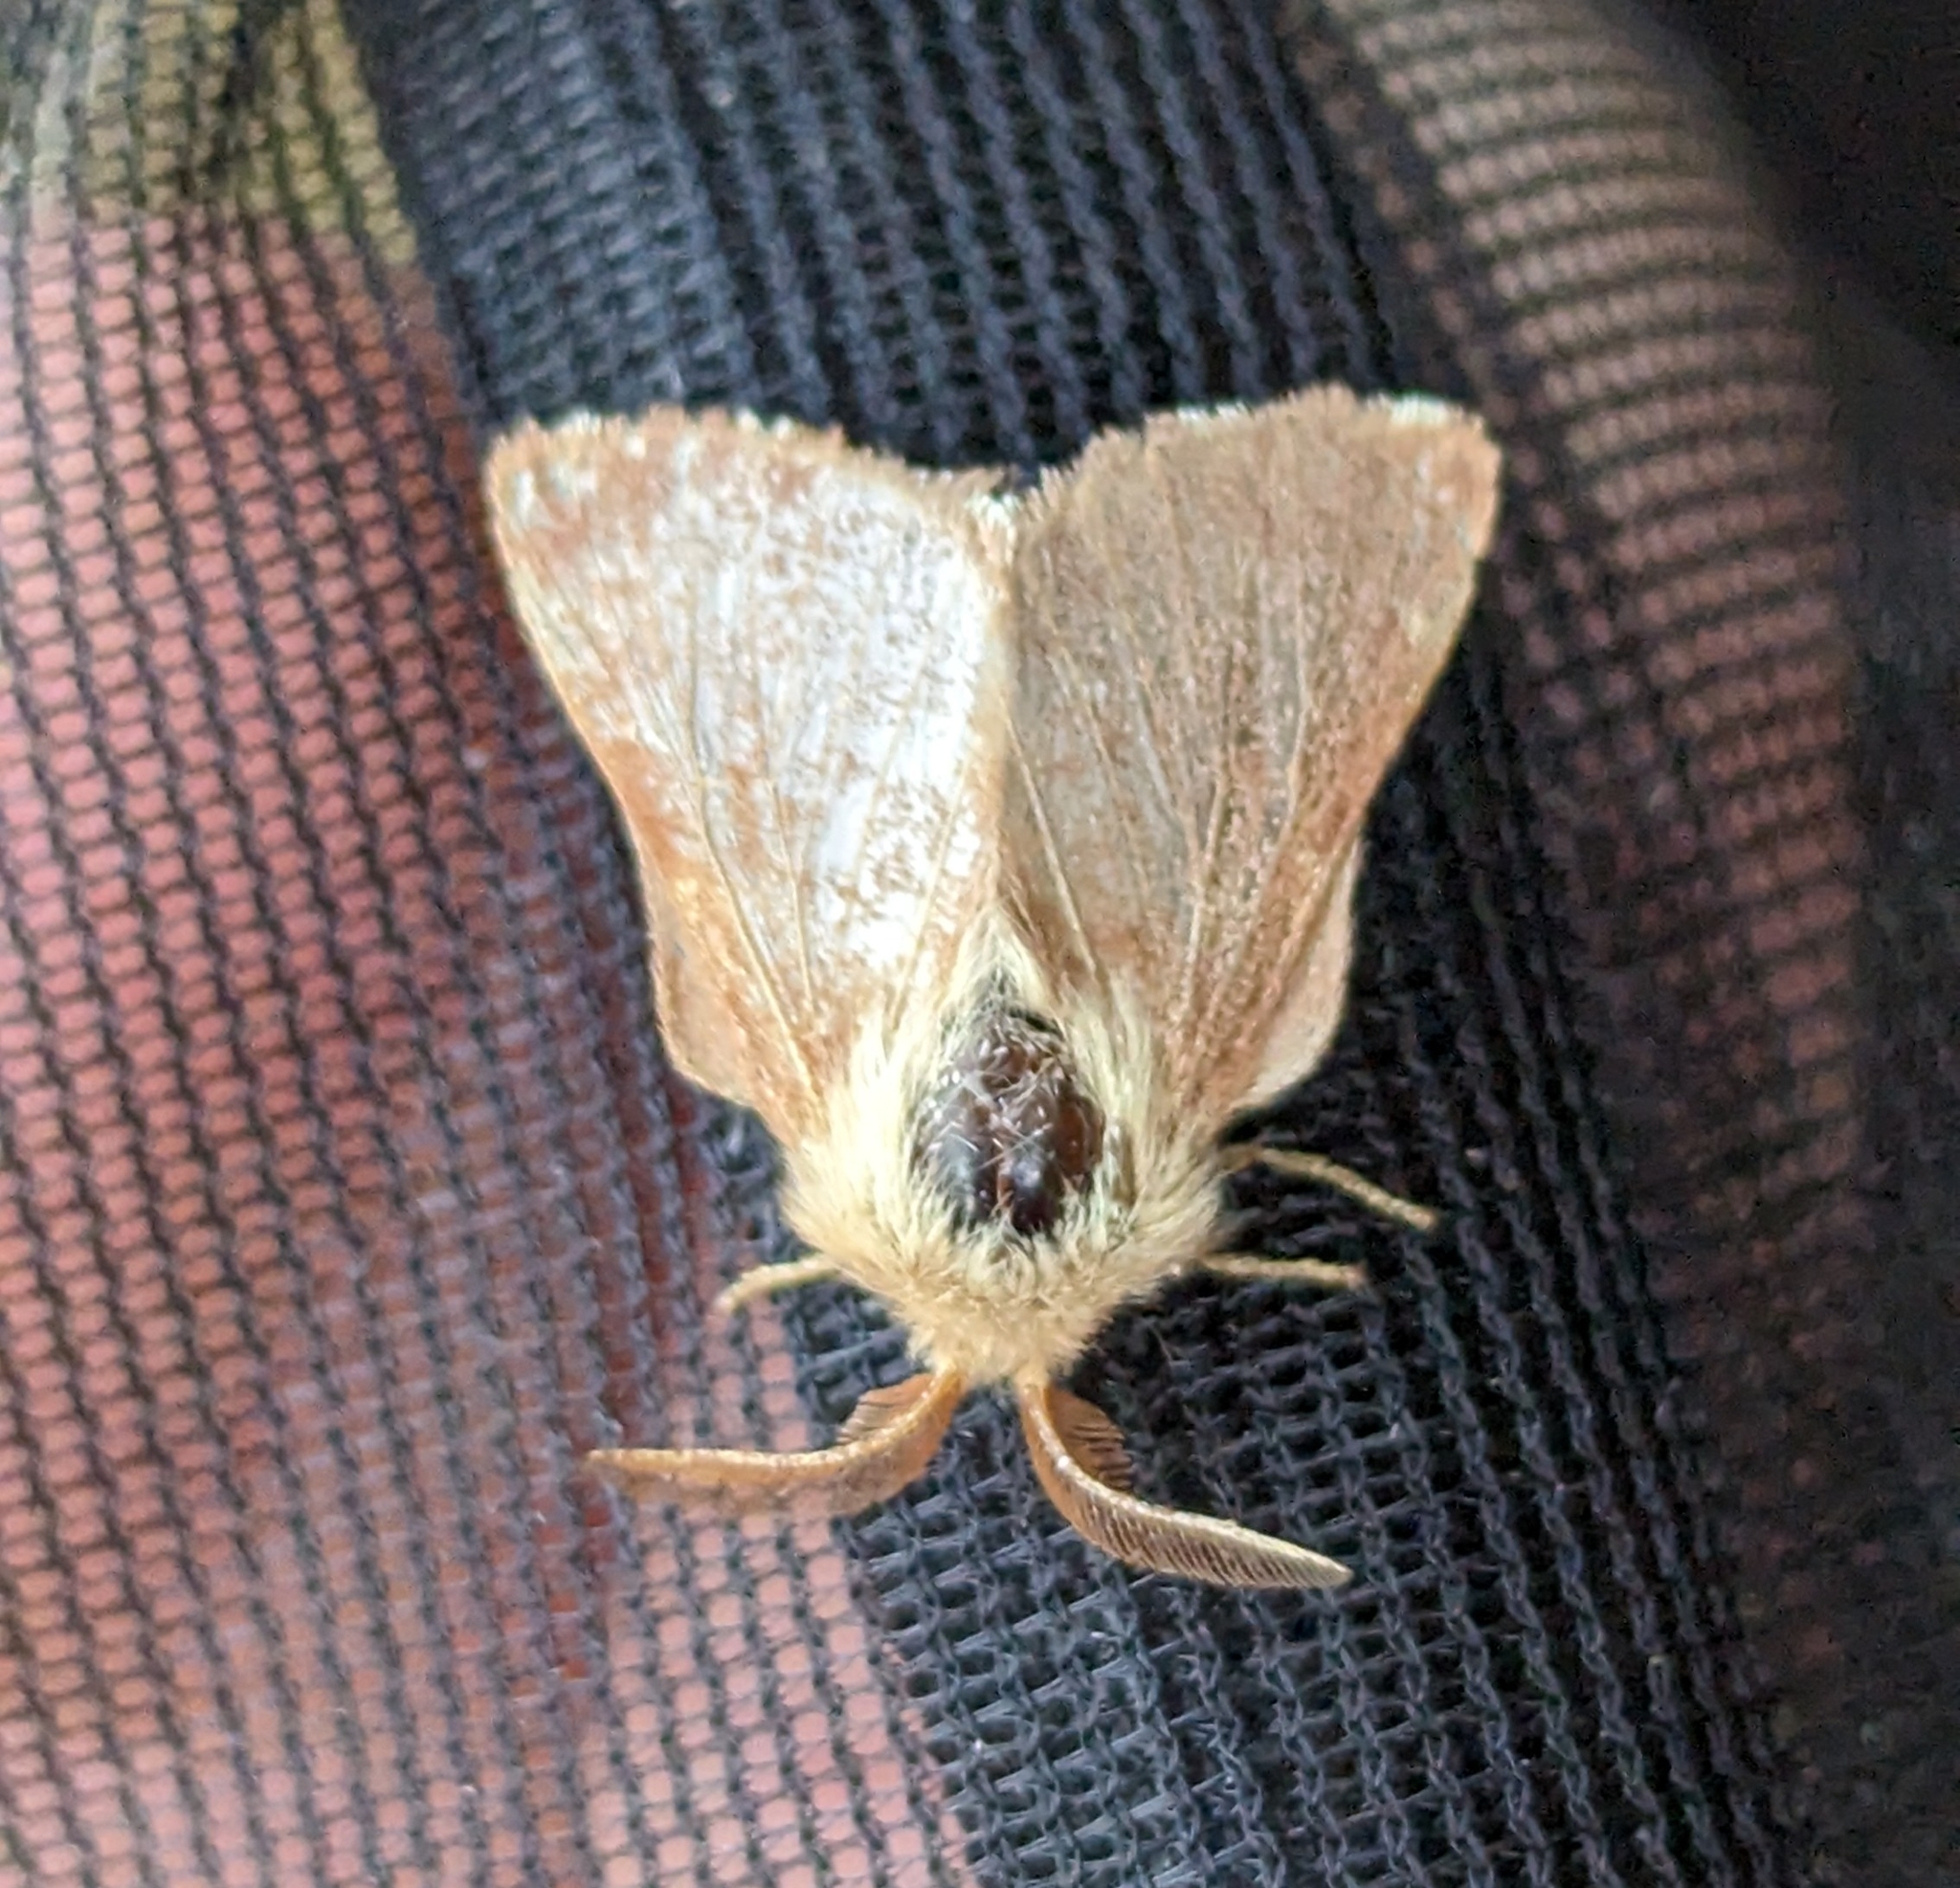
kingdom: Animalia
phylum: Arthropoda
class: Insecta
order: Lepidoptera
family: Lasiocampidae
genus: Malacosoma
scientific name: Malacosoma californica
